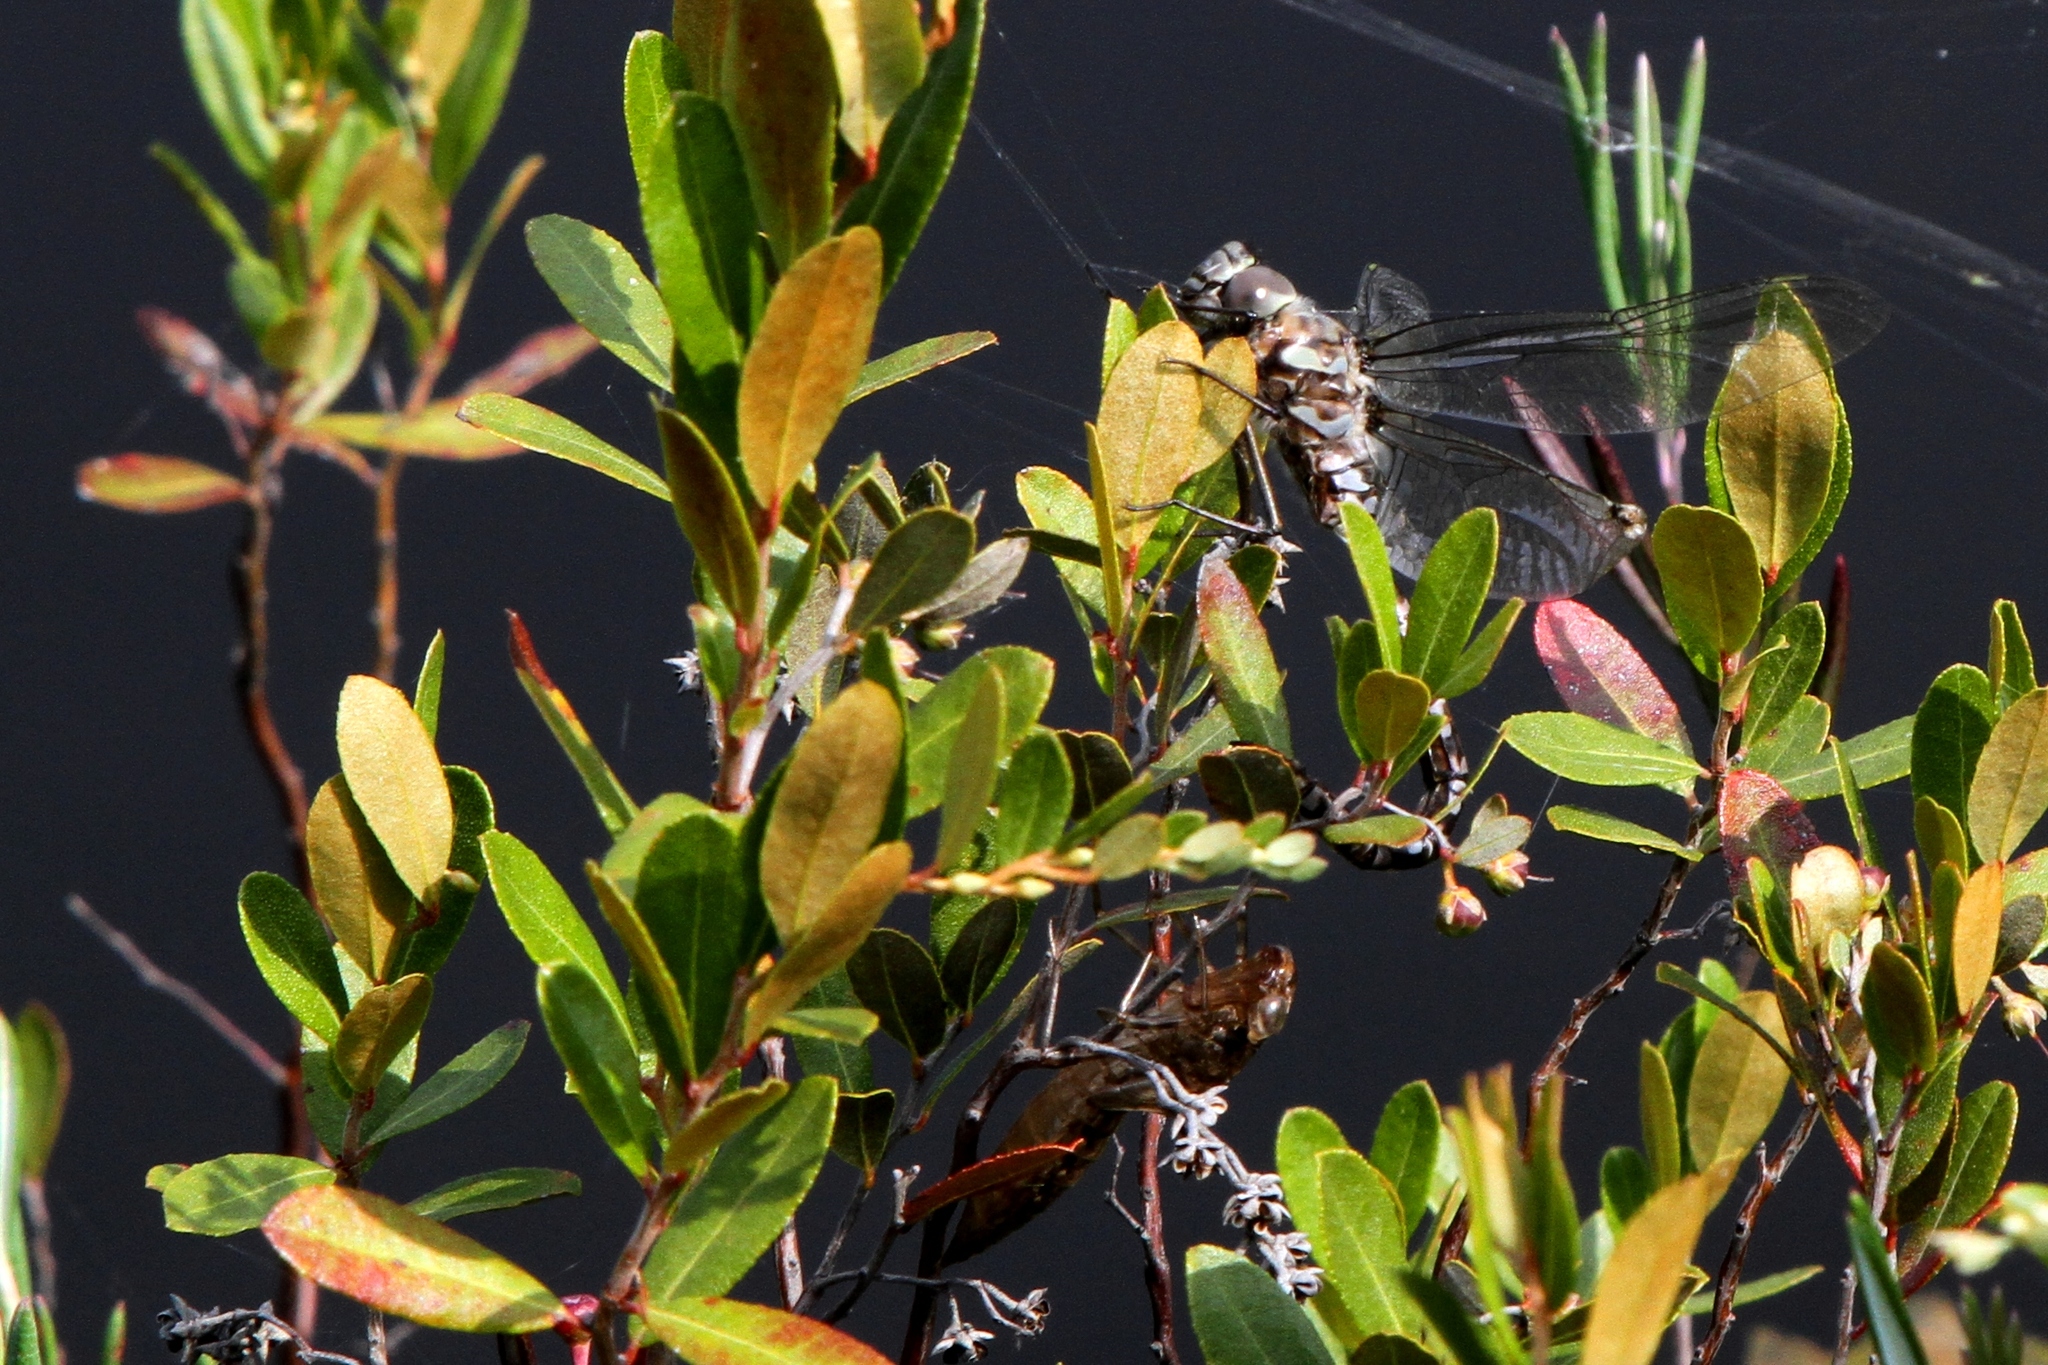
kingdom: Animalia
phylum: Arthropoda
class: Insecta
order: Odonata
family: Aeshnidae
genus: Aeshna
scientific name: Aeshna eremita
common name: Lake darner
